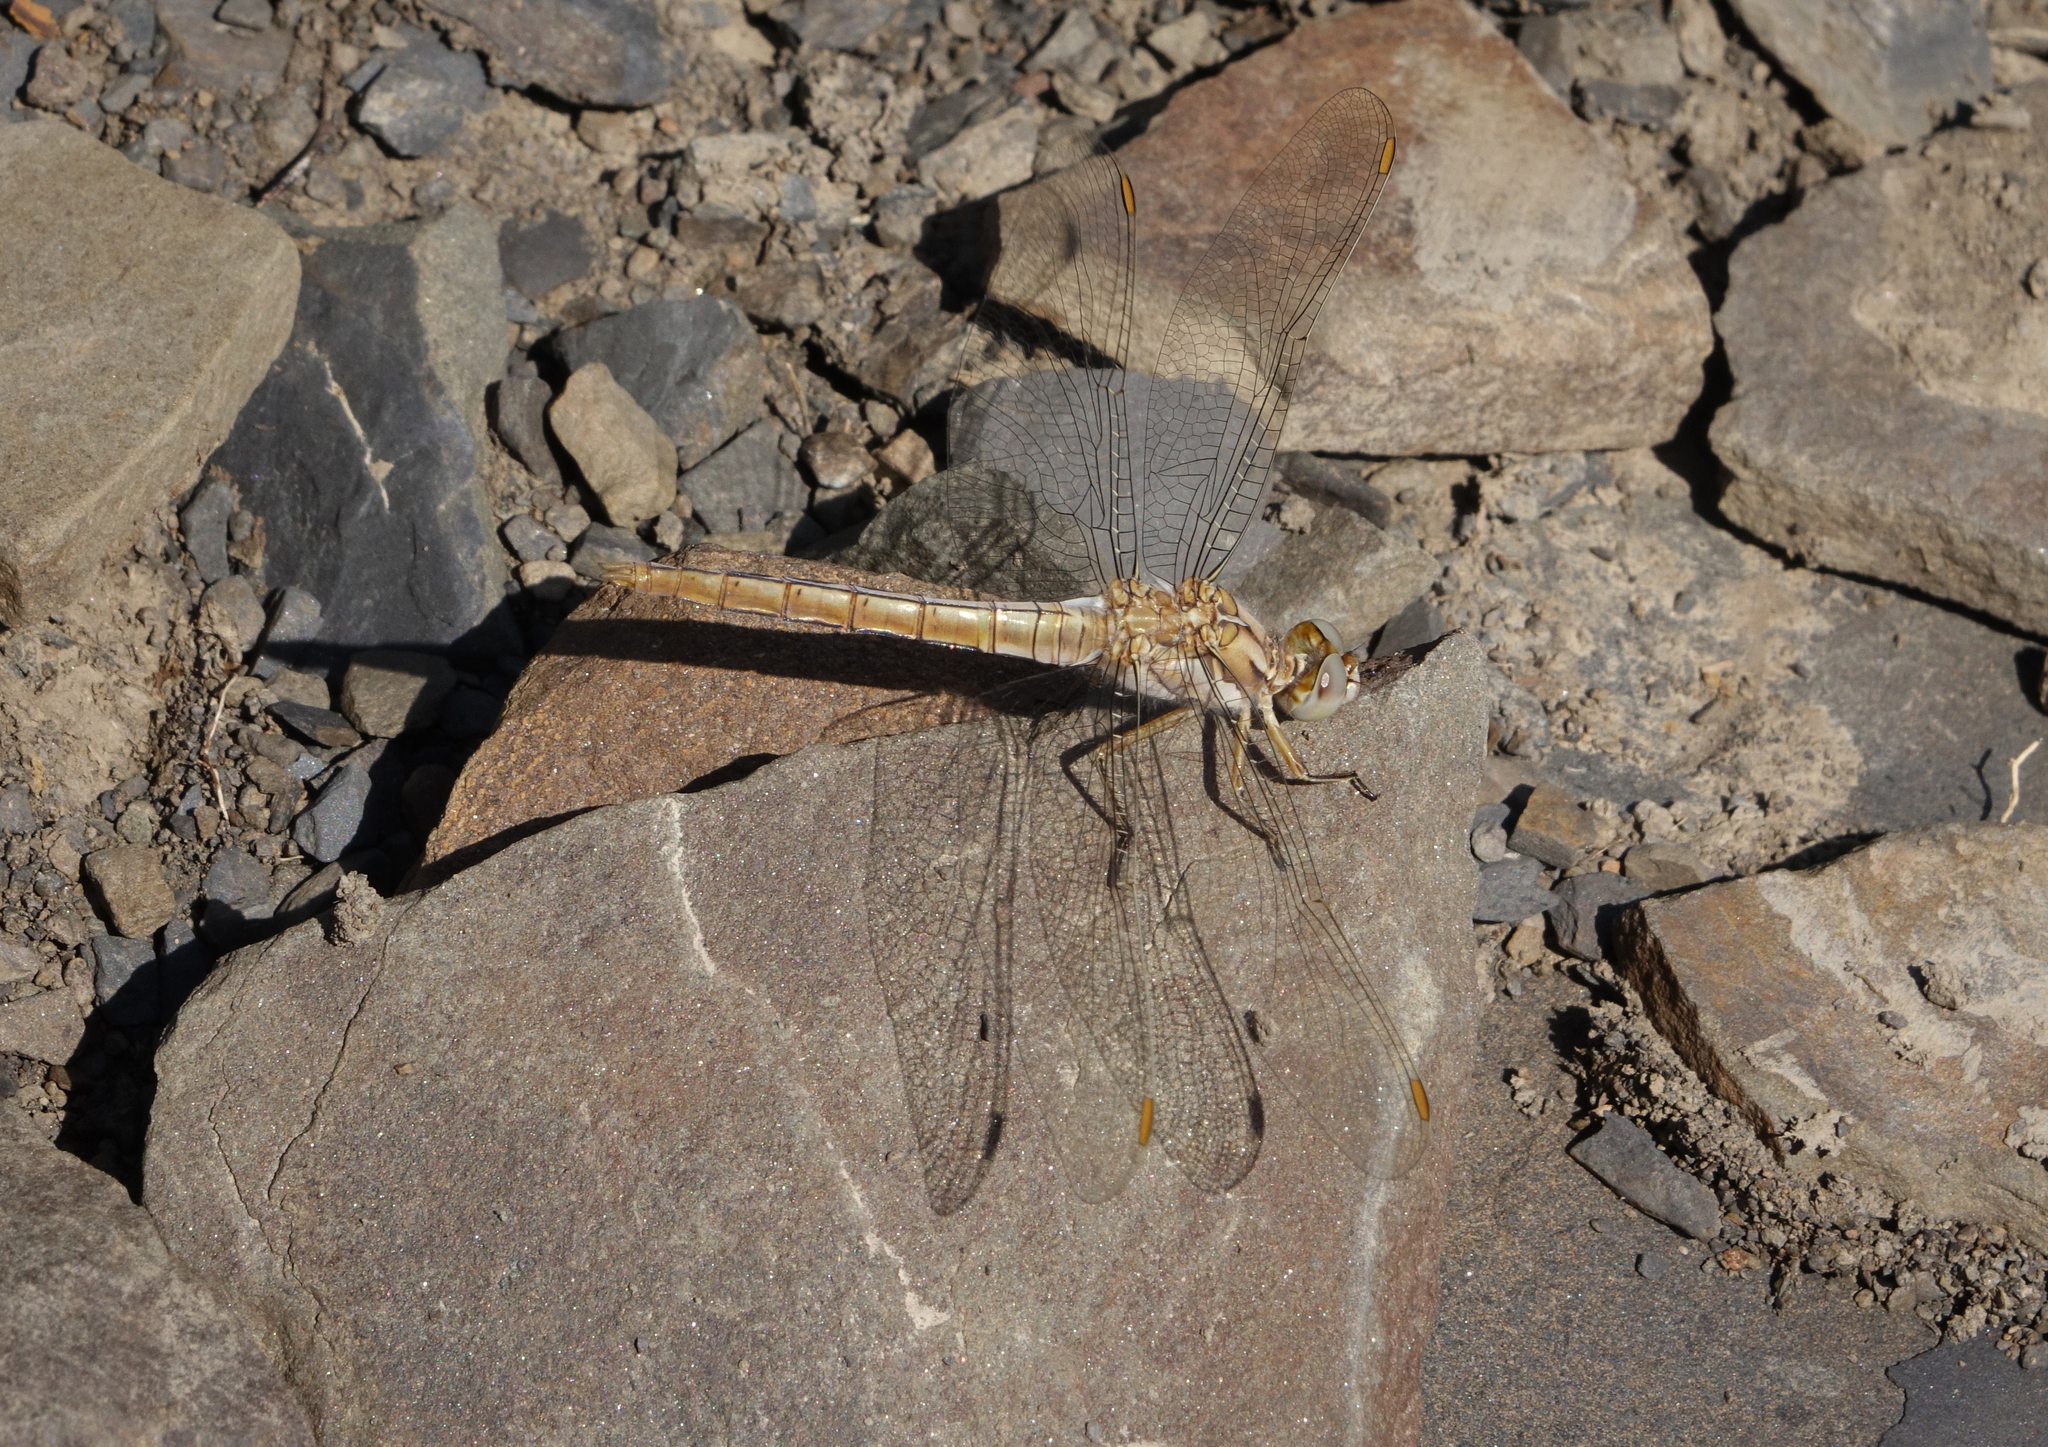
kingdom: Animalia
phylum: Arthropoda
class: Insecta
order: Odonata
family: Libellulidae
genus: Orthetrum
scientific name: Orthetrum brunneum
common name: Southern skimmer
